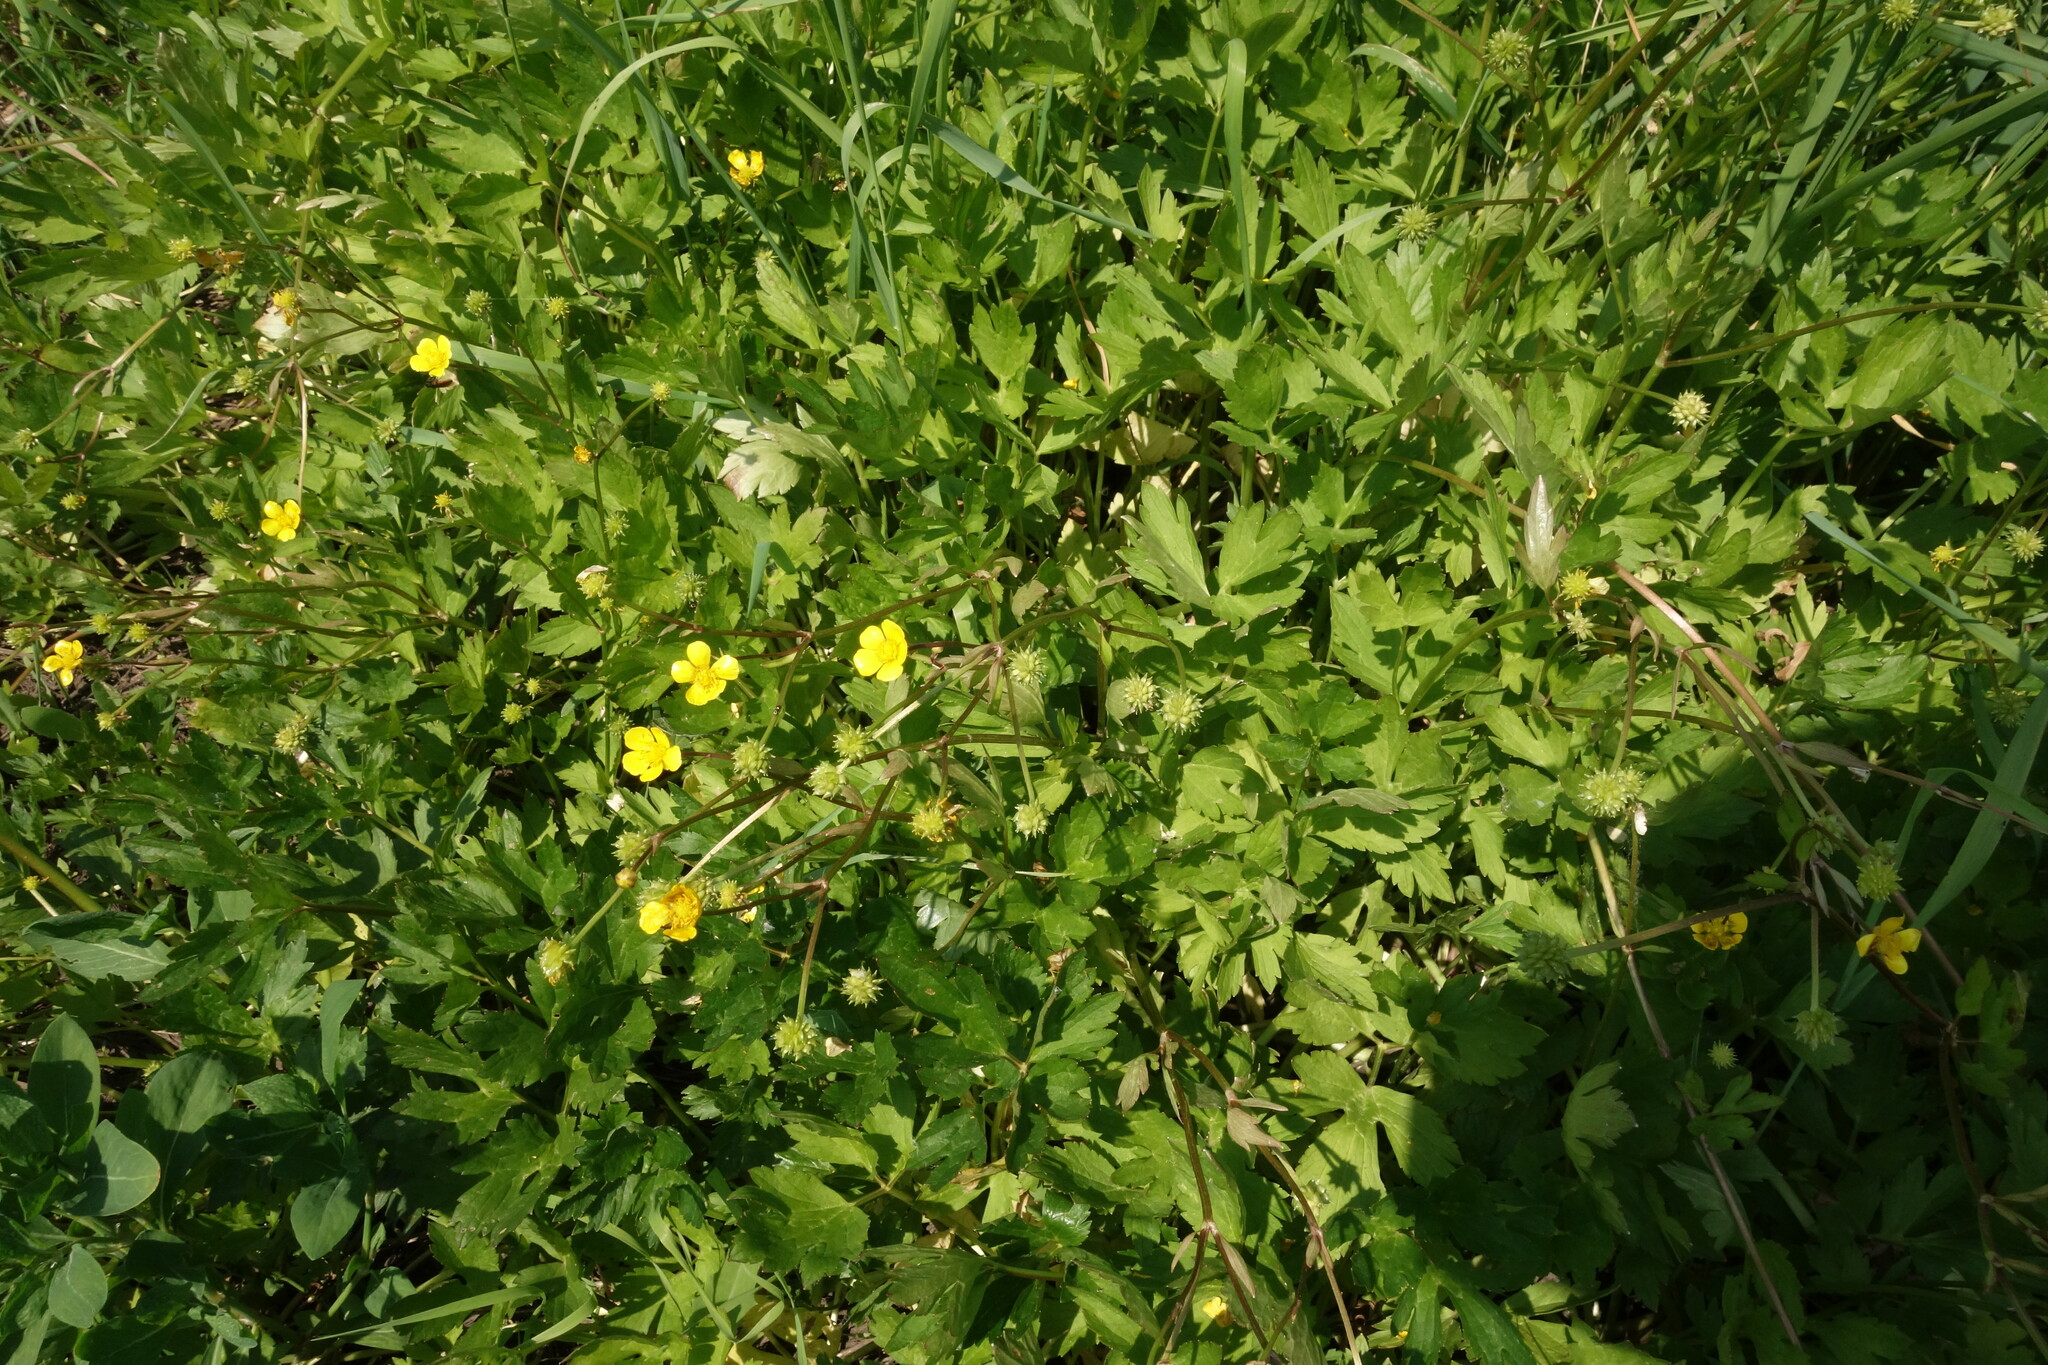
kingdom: Plantae
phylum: Tracheophyta
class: Magnoliopsida
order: Ranunculales
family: Ranunculaceae
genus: Ranunculus
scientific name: Ranunculus repens
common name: Creeping buttercup
